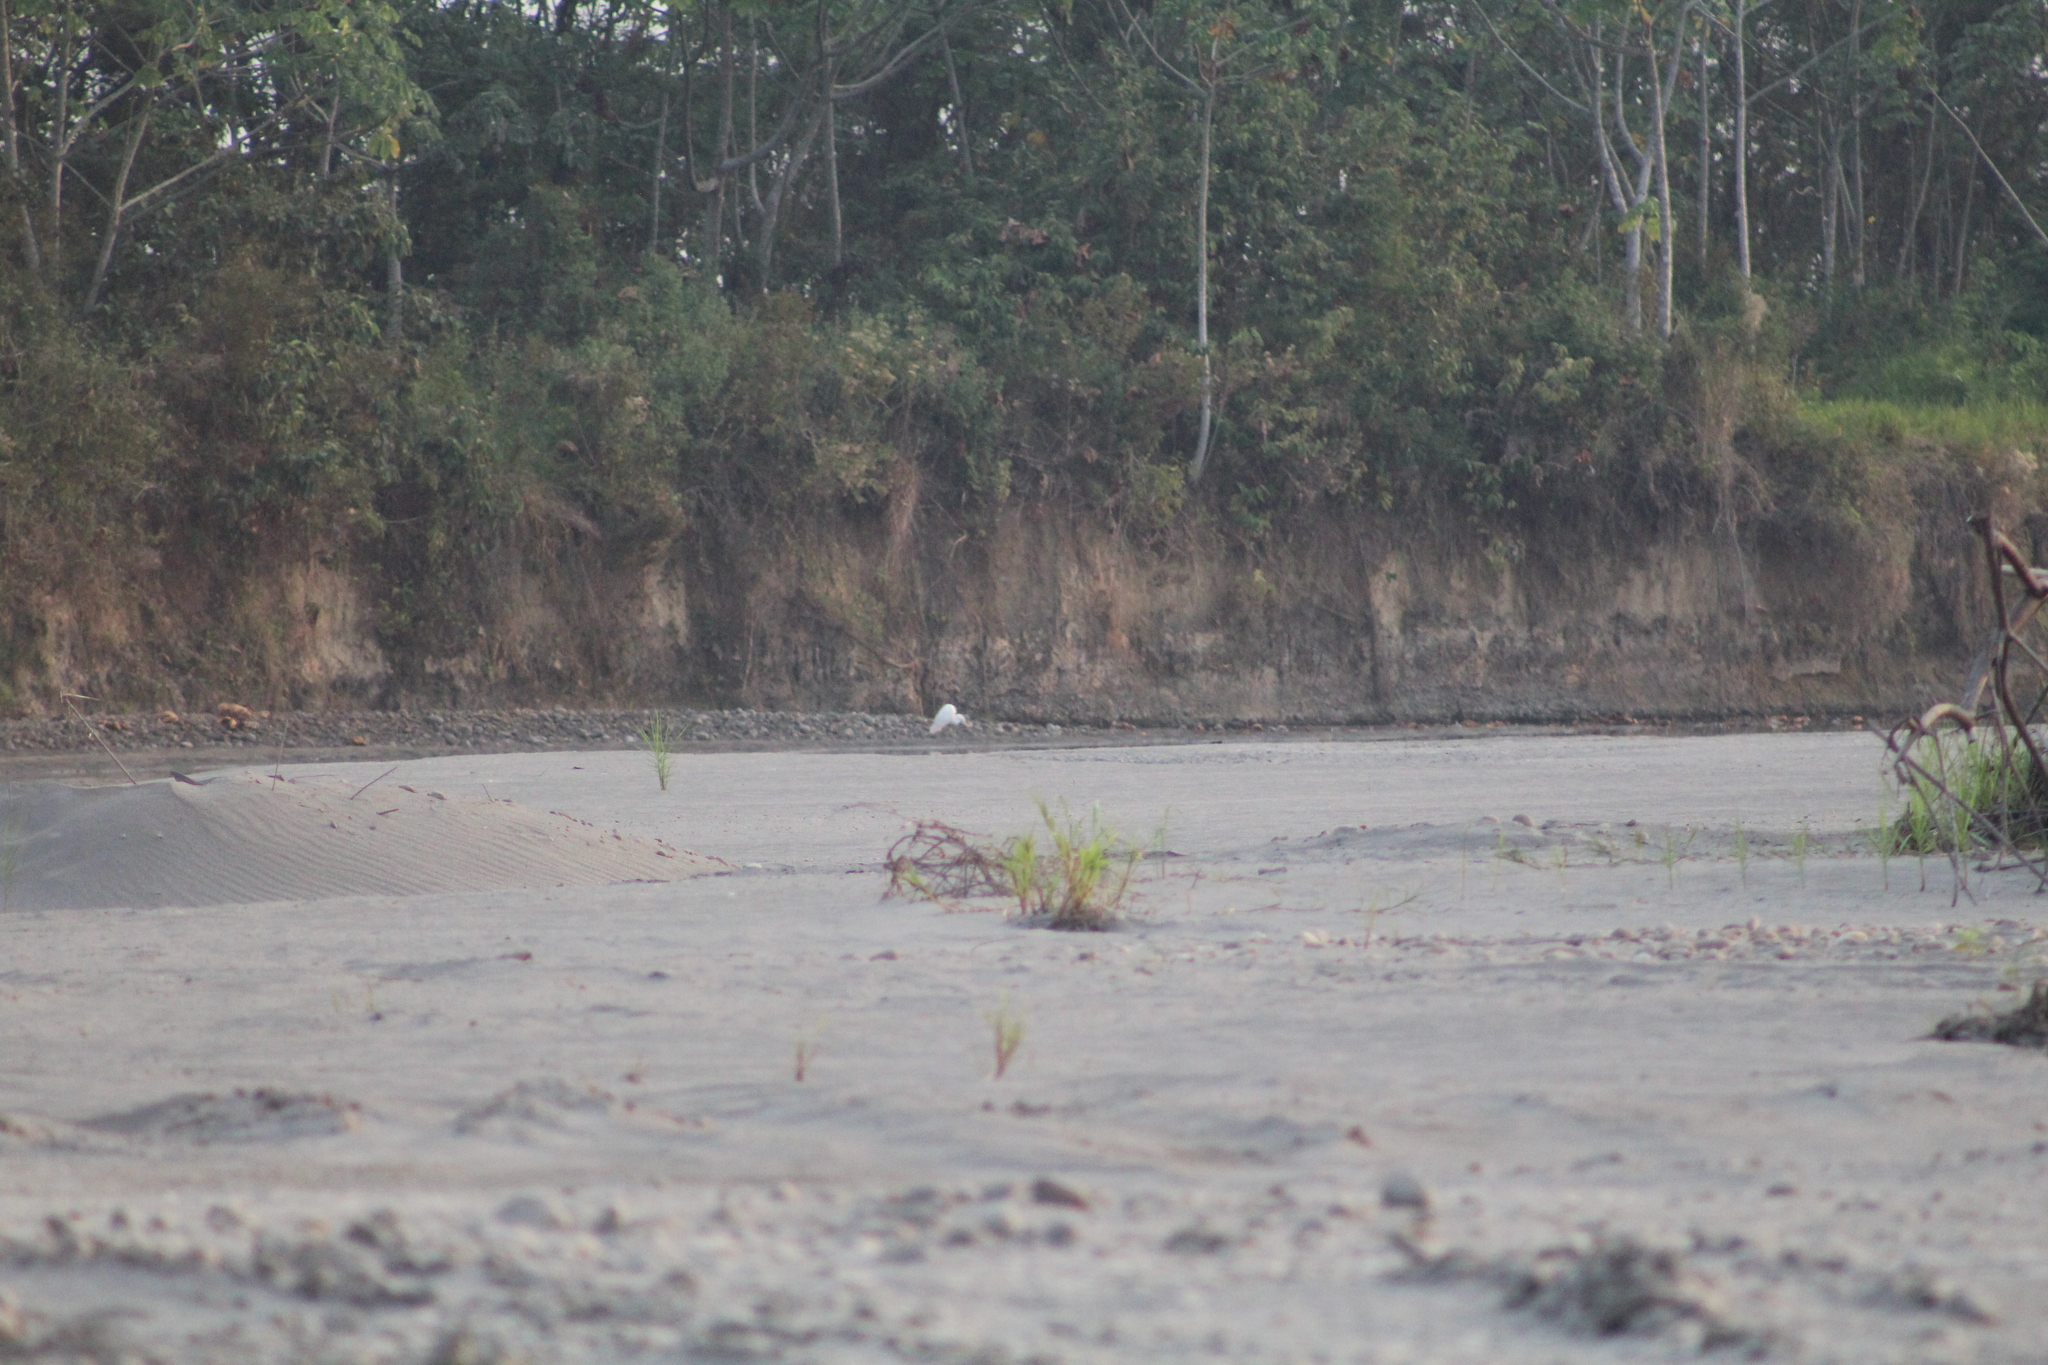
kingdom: Animalia
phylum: Chordata
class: Aves
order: Pelecaniformes
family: Ardeidae
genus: Ardea
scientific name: Ardea alba
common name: Great egret
